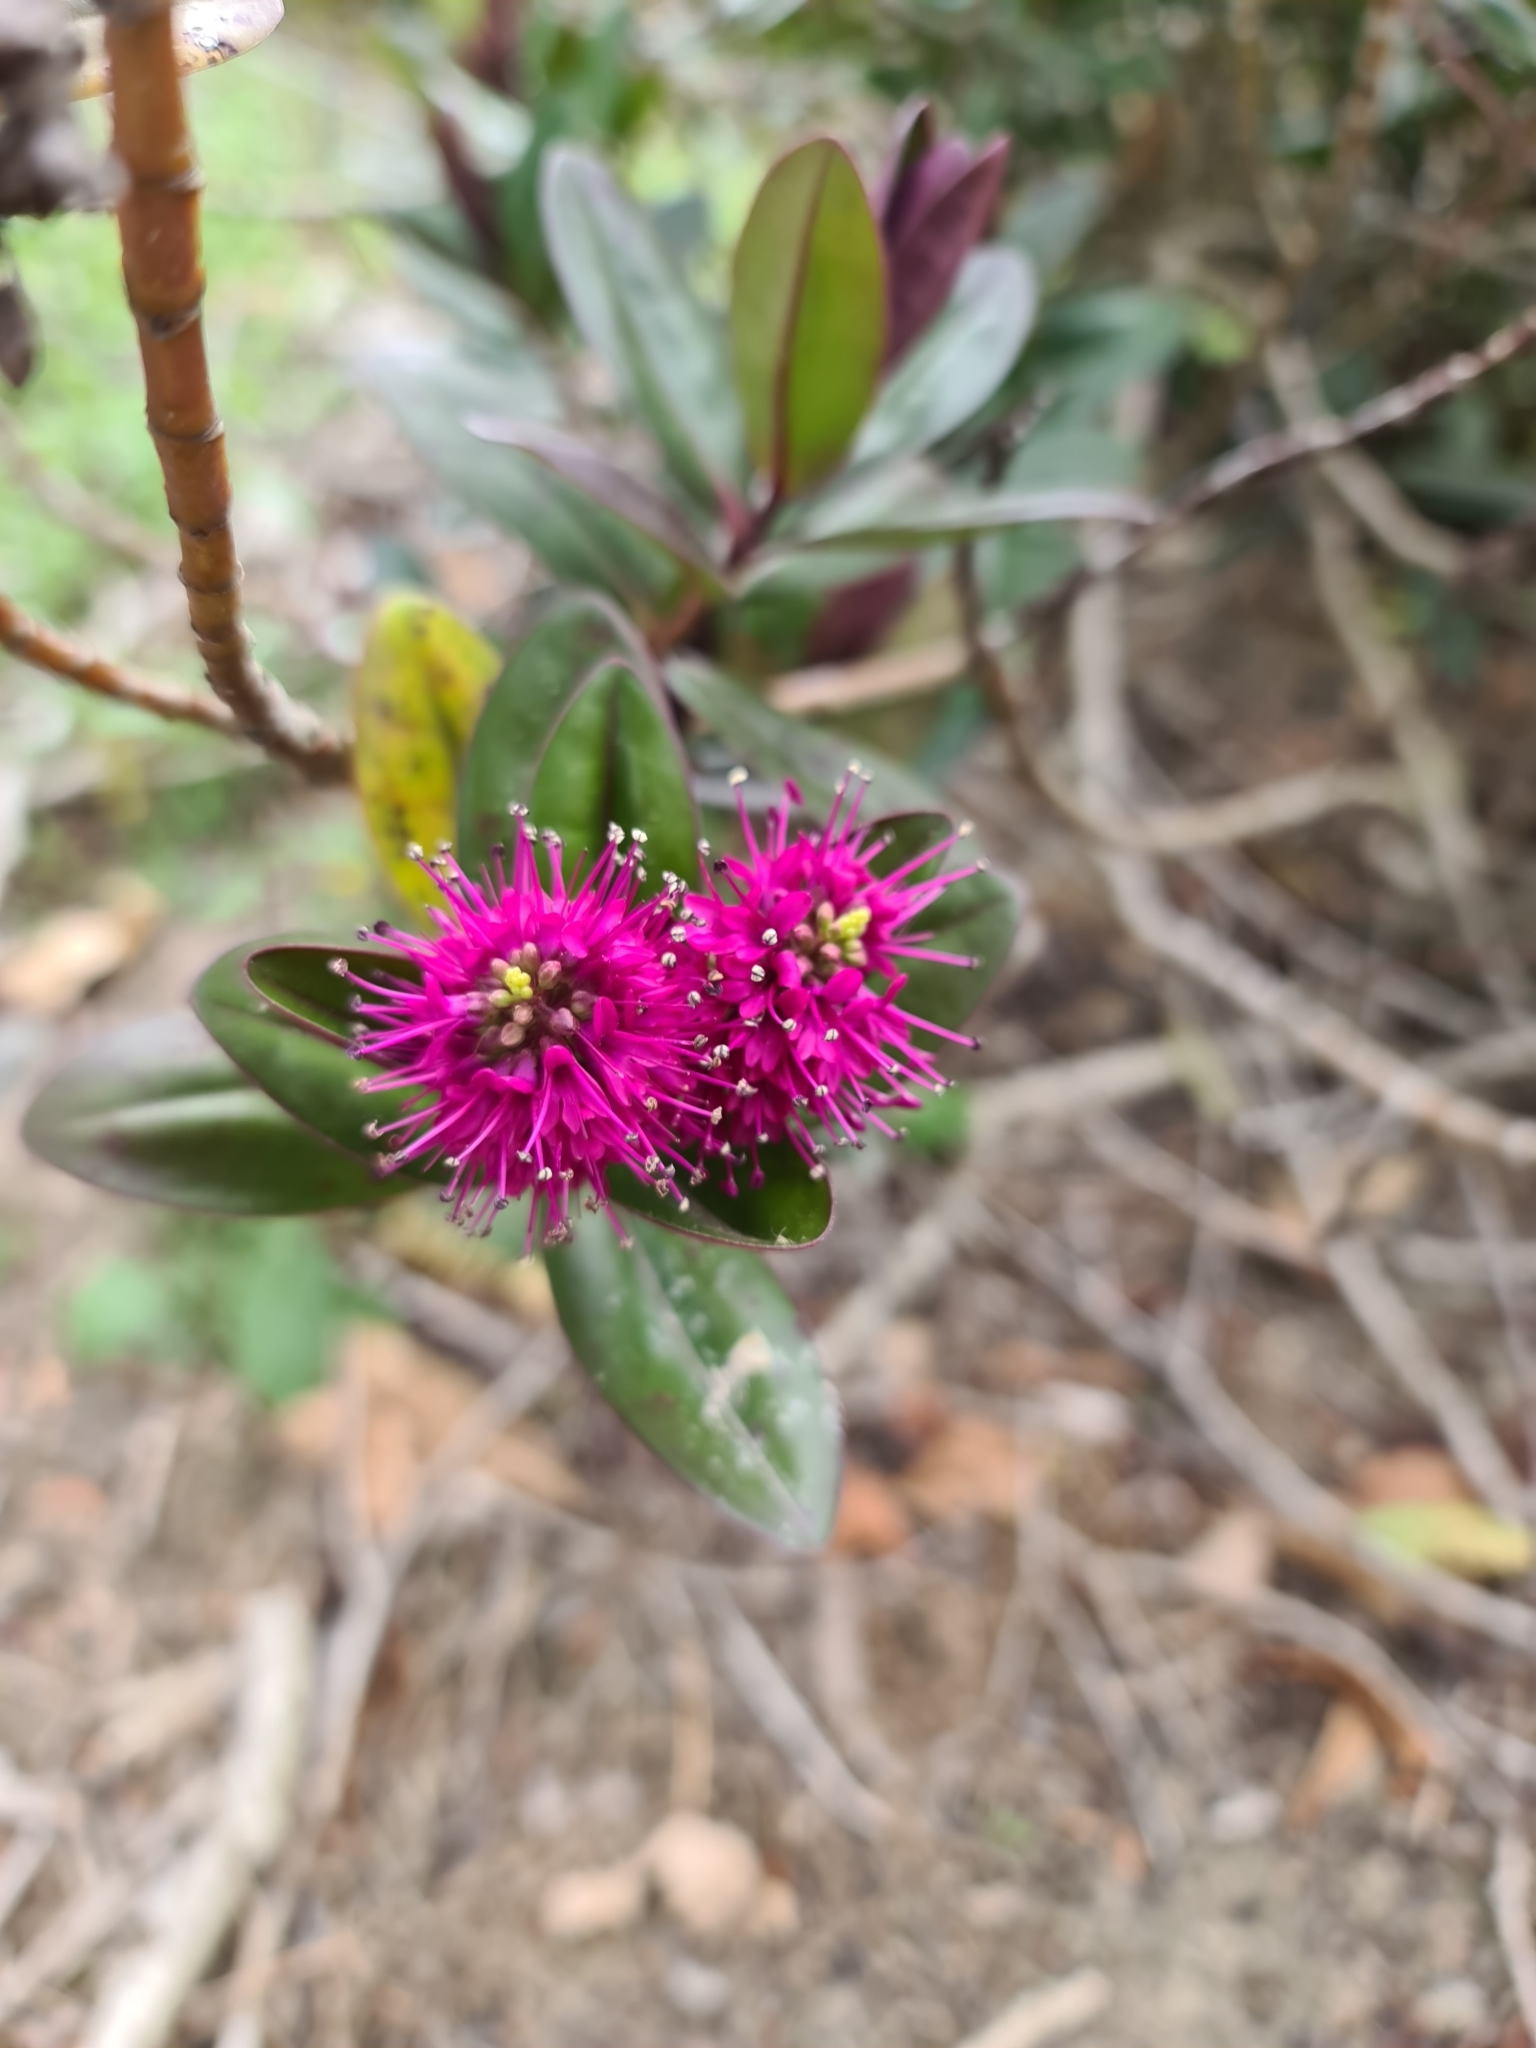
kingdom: Plantae
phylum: Tracheophyta
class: Magnoliopsida
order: Lamiales
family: Plantaginaceae
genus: Veronica
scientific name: Veronica speciosa
